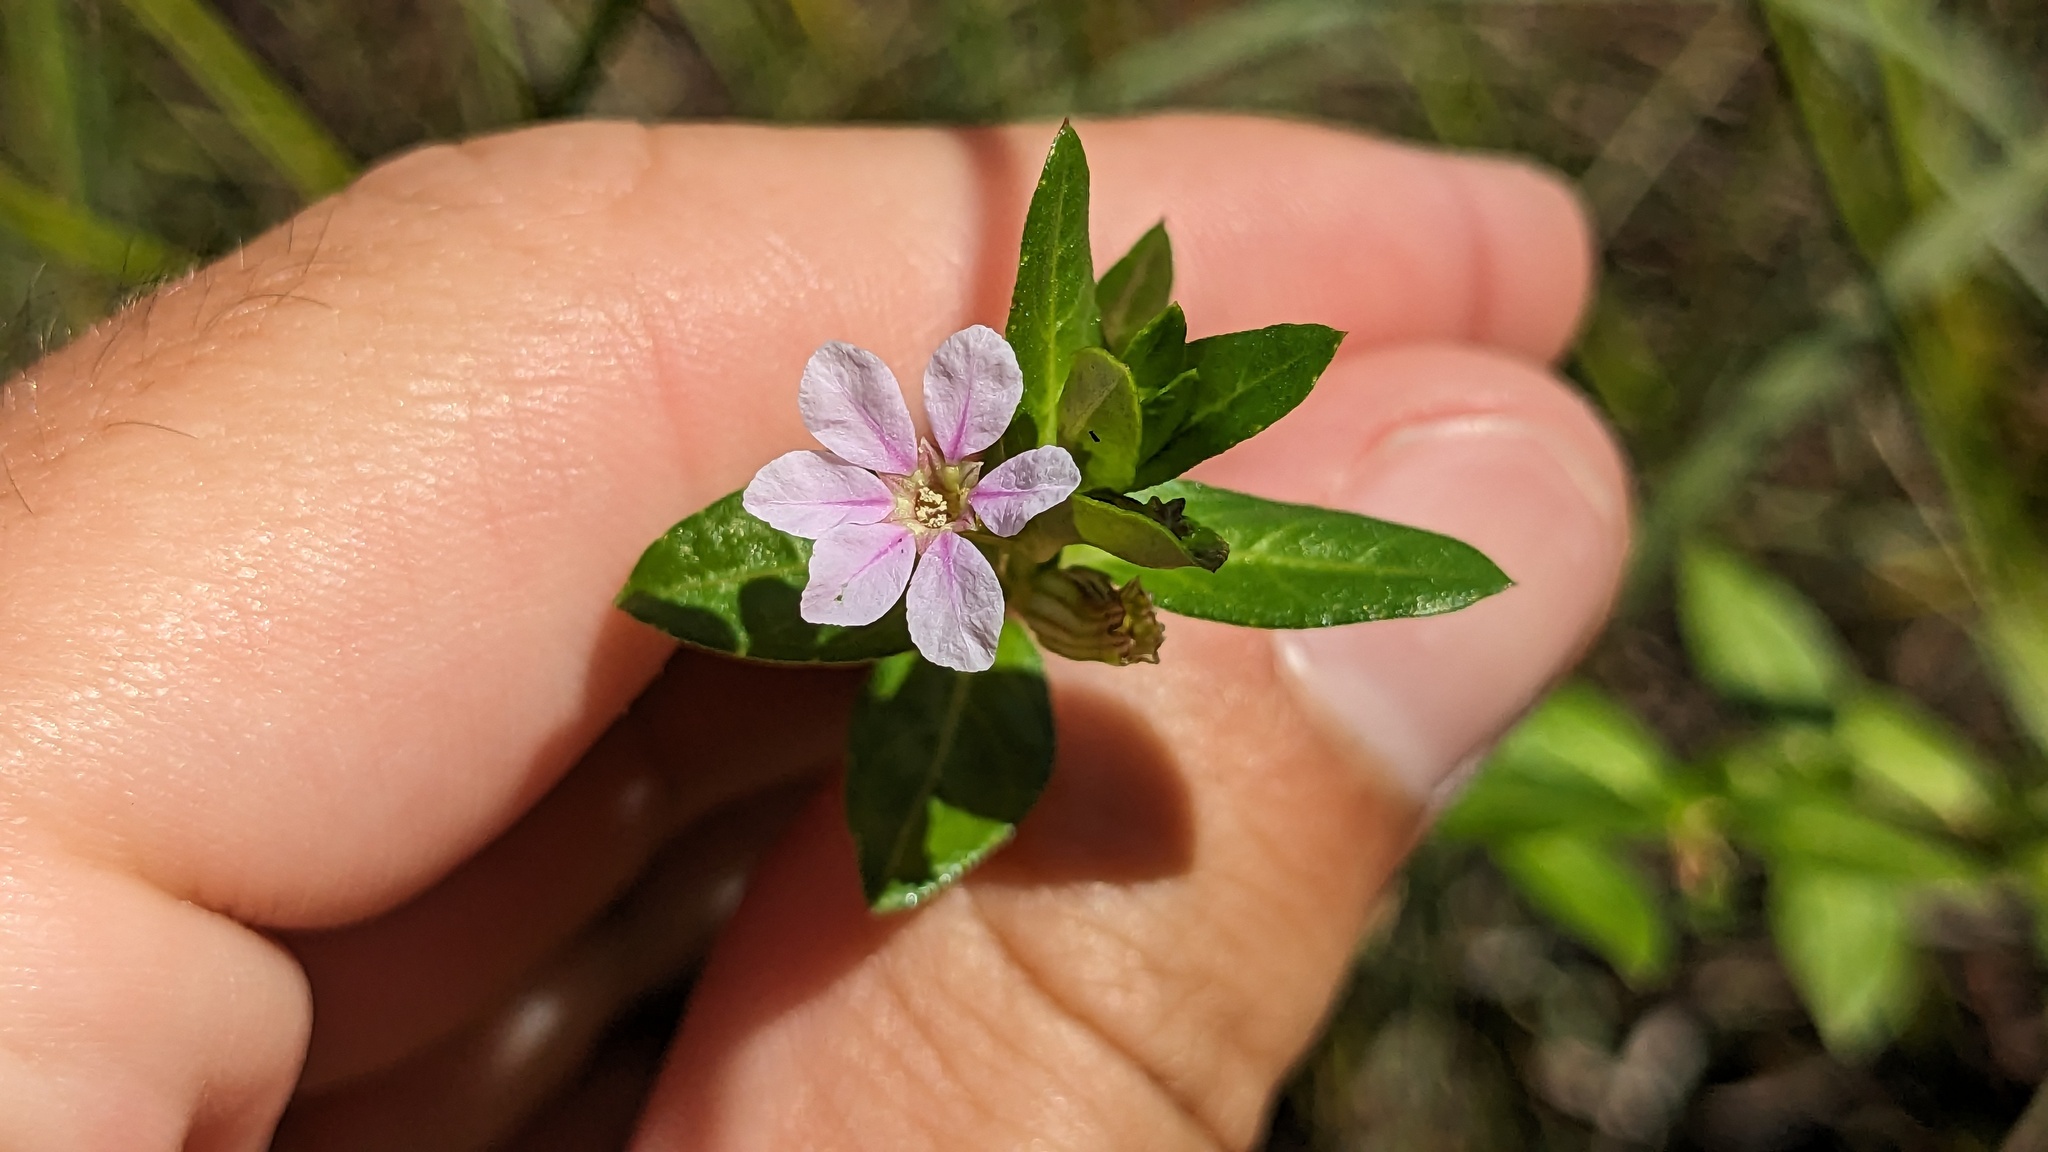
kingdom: Plantae
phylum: Tracheophyta
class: Magnoliopsida
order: Myrtales
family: Lythraceae
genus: Cuphea
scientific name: Cuphea strigulosa
